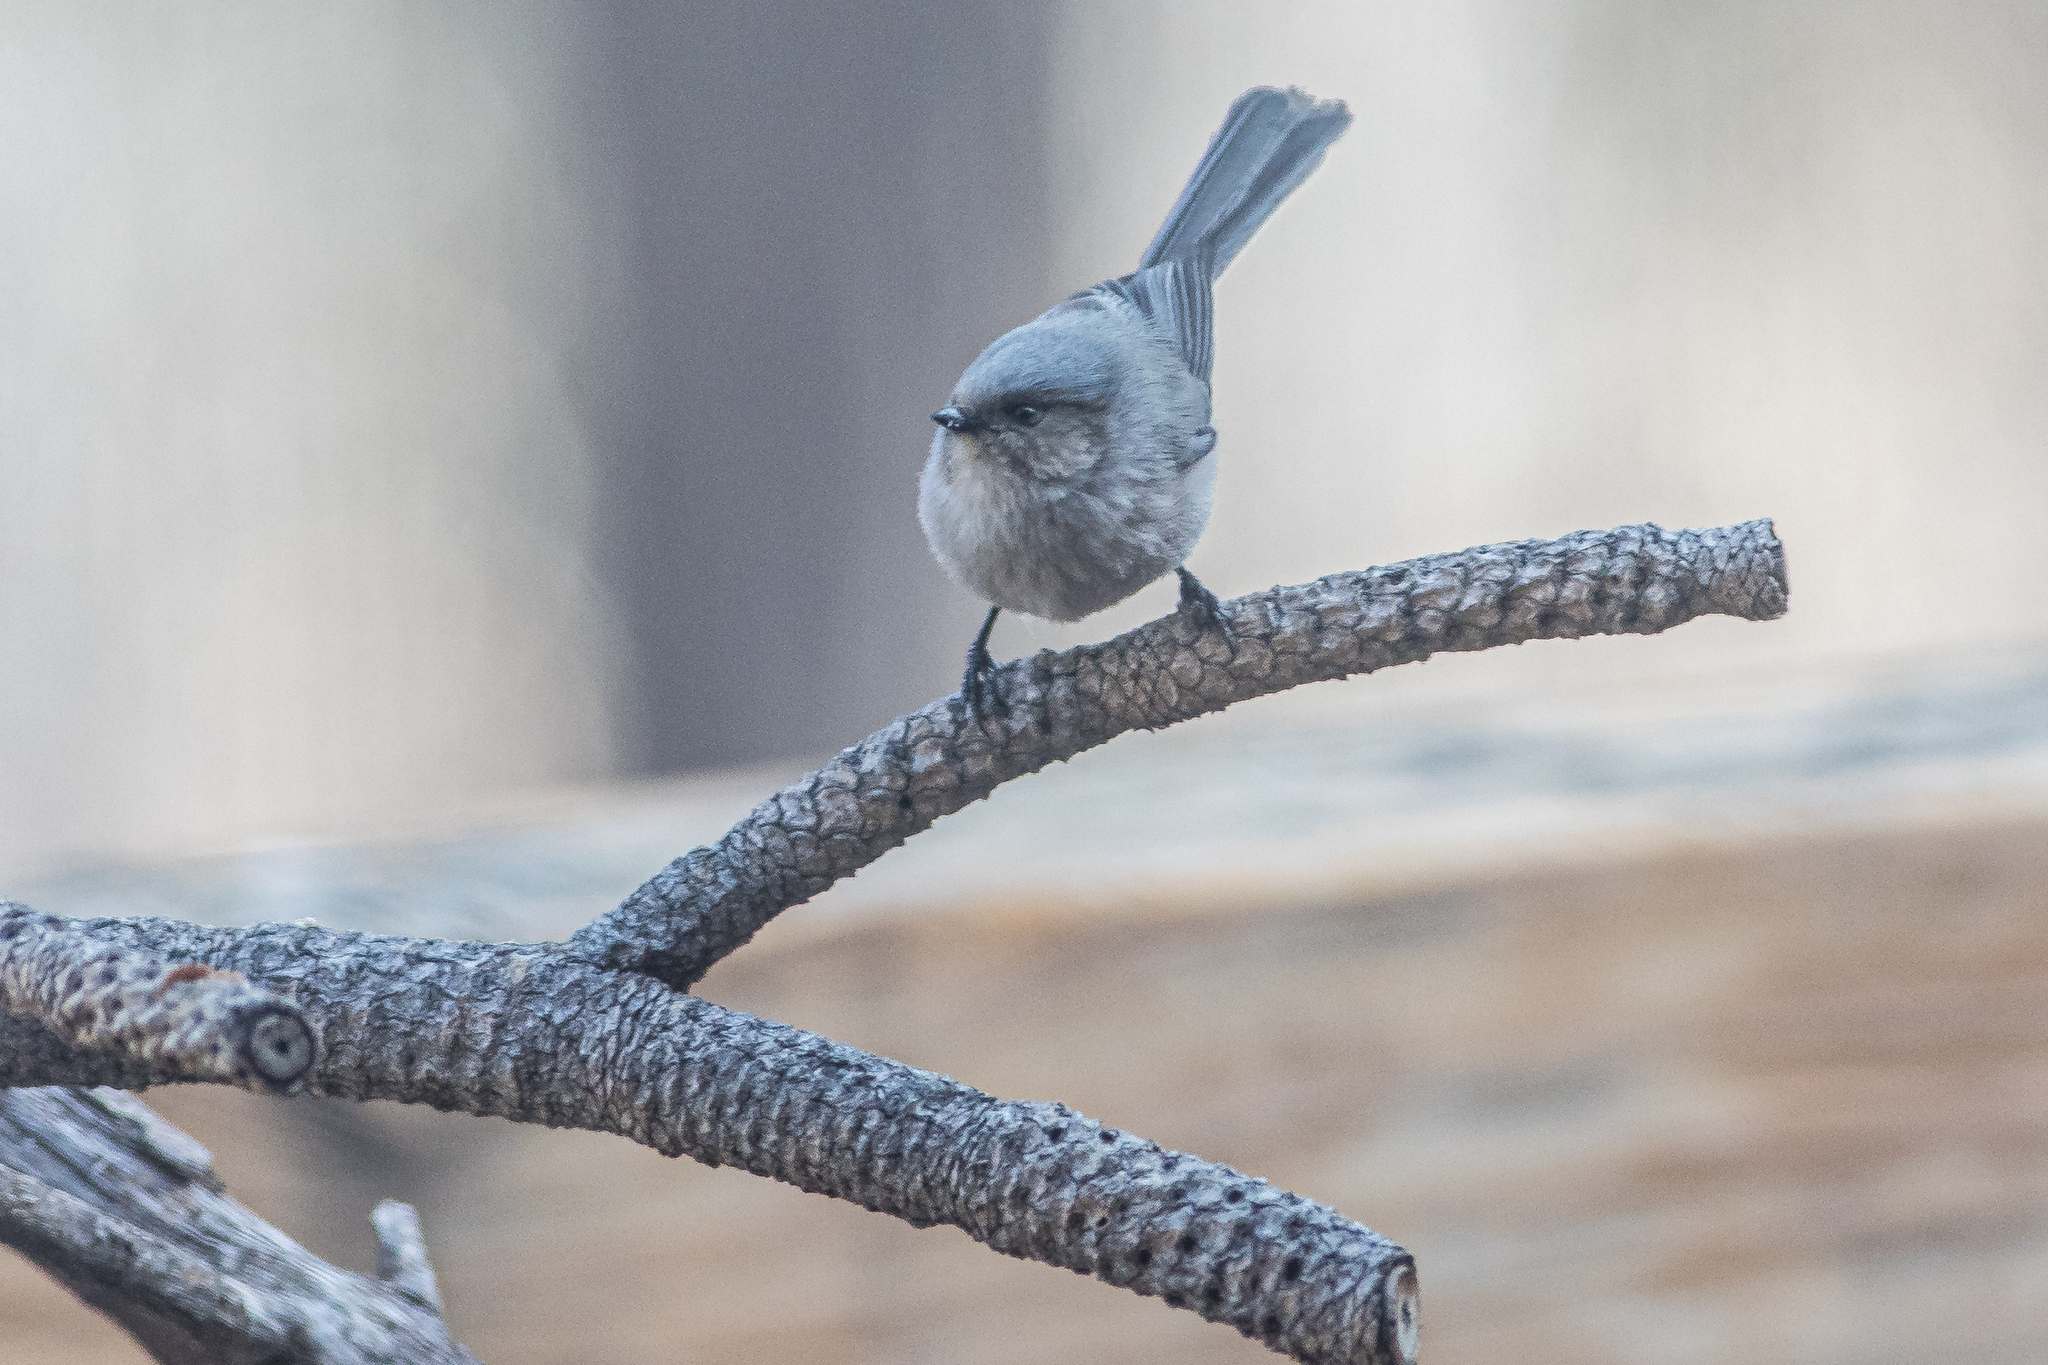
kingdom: Animalia
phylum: Chordata
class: Aves
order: Passeriformes
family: Aegithalidae
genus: Psaltriparus
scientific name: Psaltriparus minimus
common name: American bushtit
